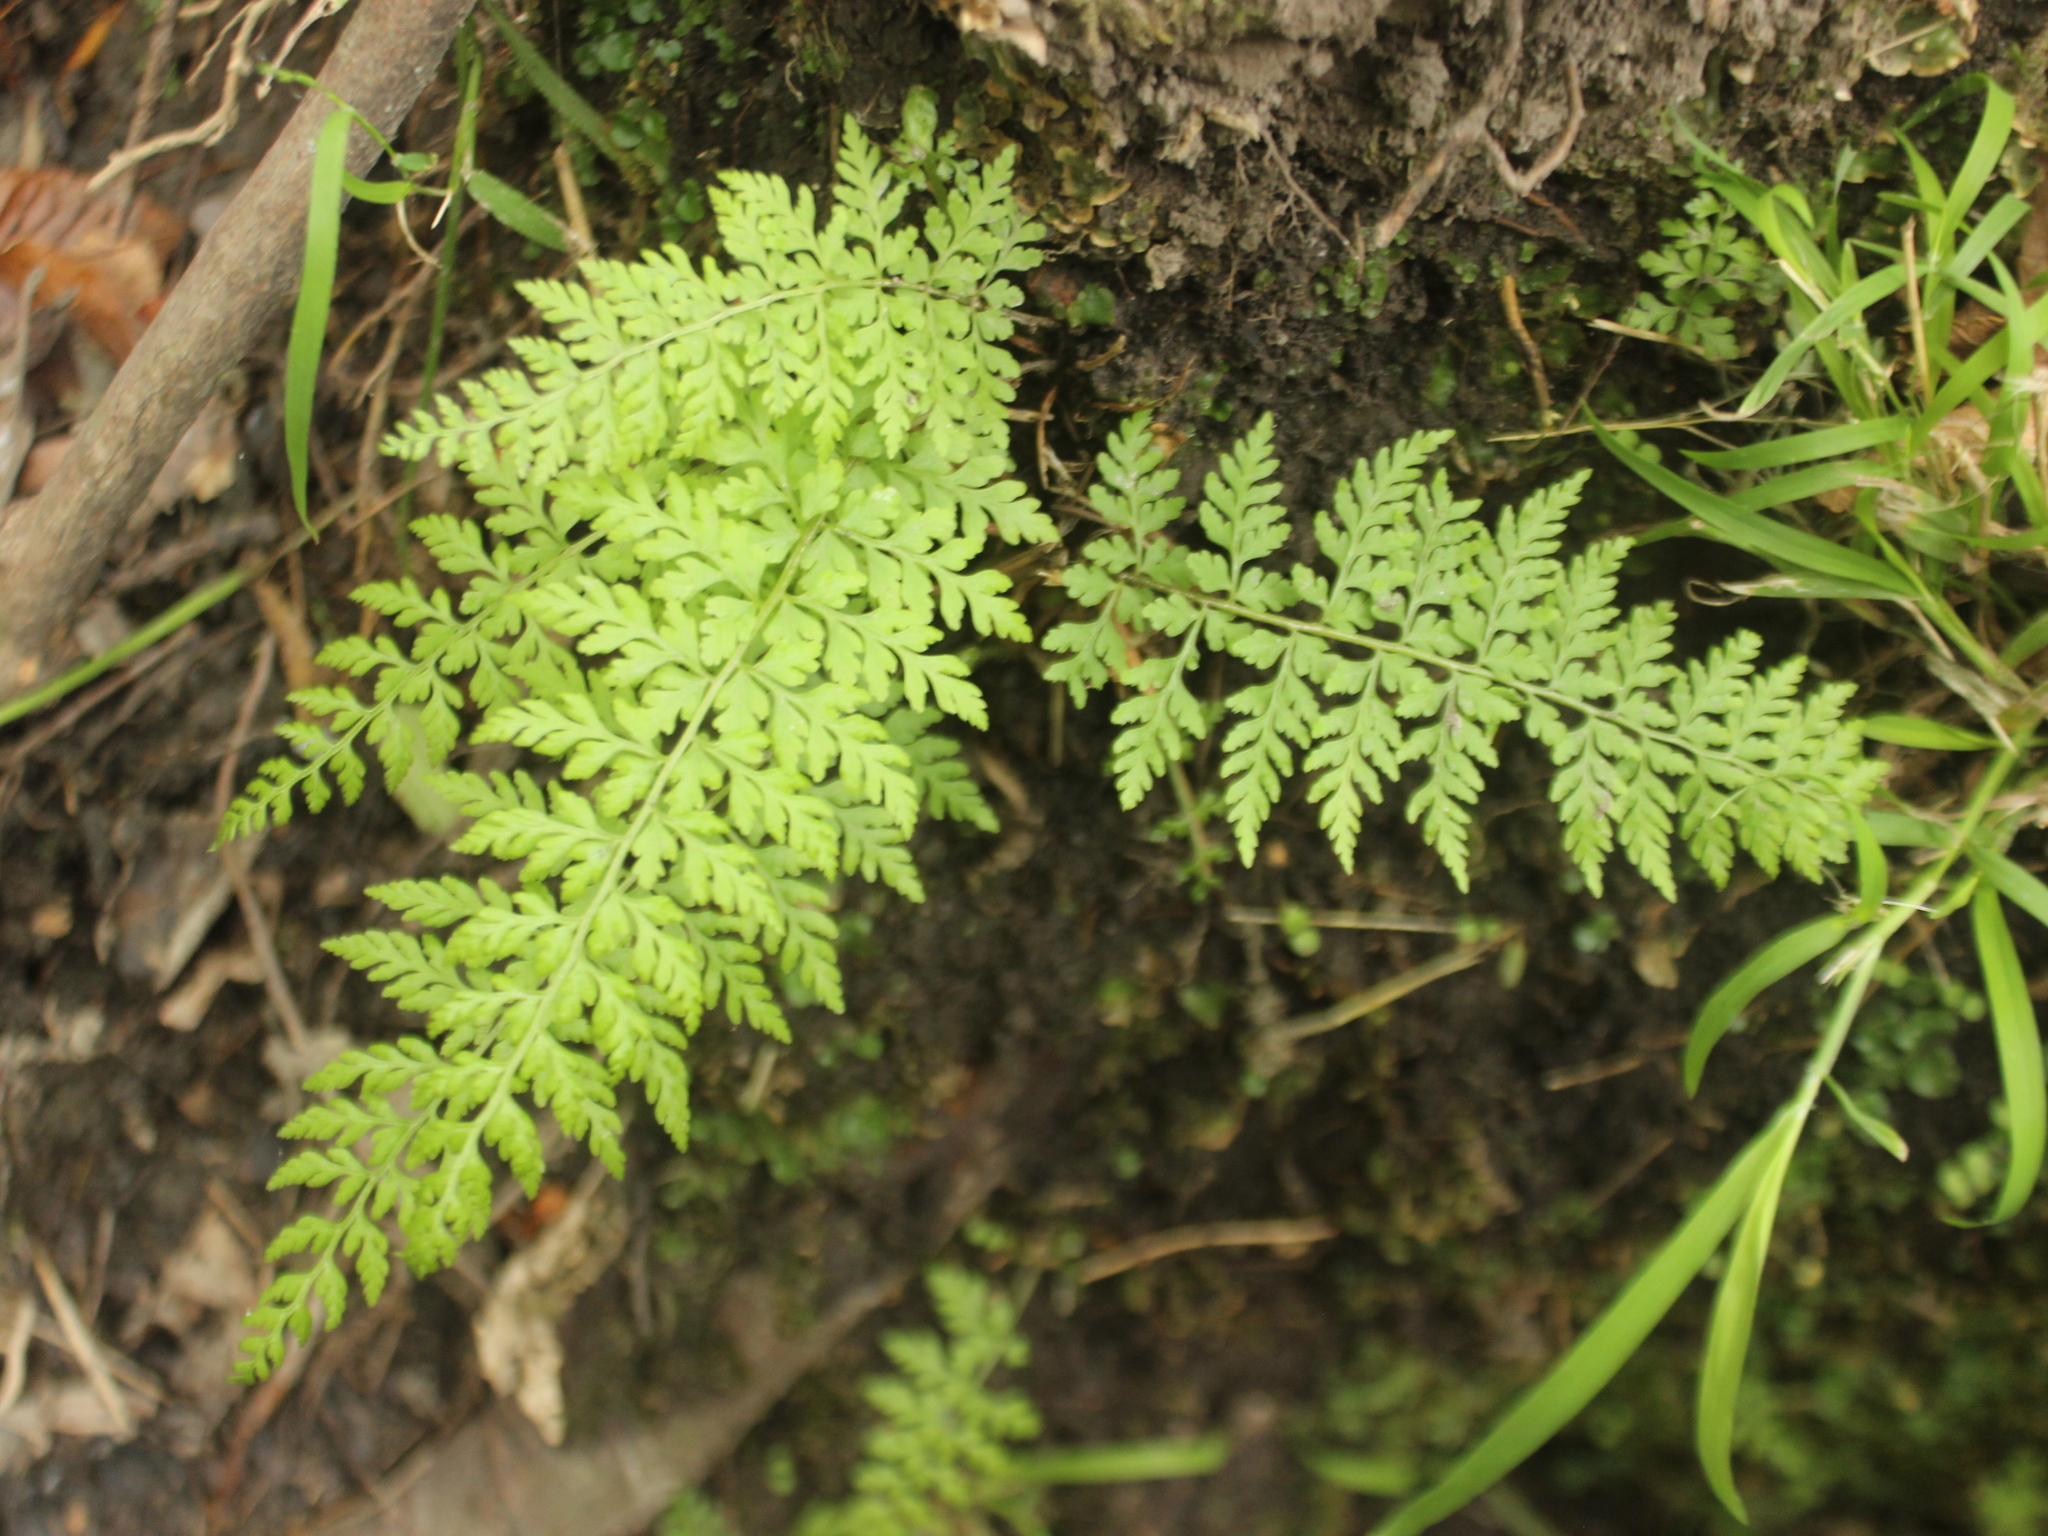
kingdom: Plantae
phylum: Tracheophyta
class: Polypodiopsida
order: Polypodiales
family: Cystopteridaceae
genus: Cystopteris
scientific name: Cystopteris fragilis
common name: Brittle bladder fern
